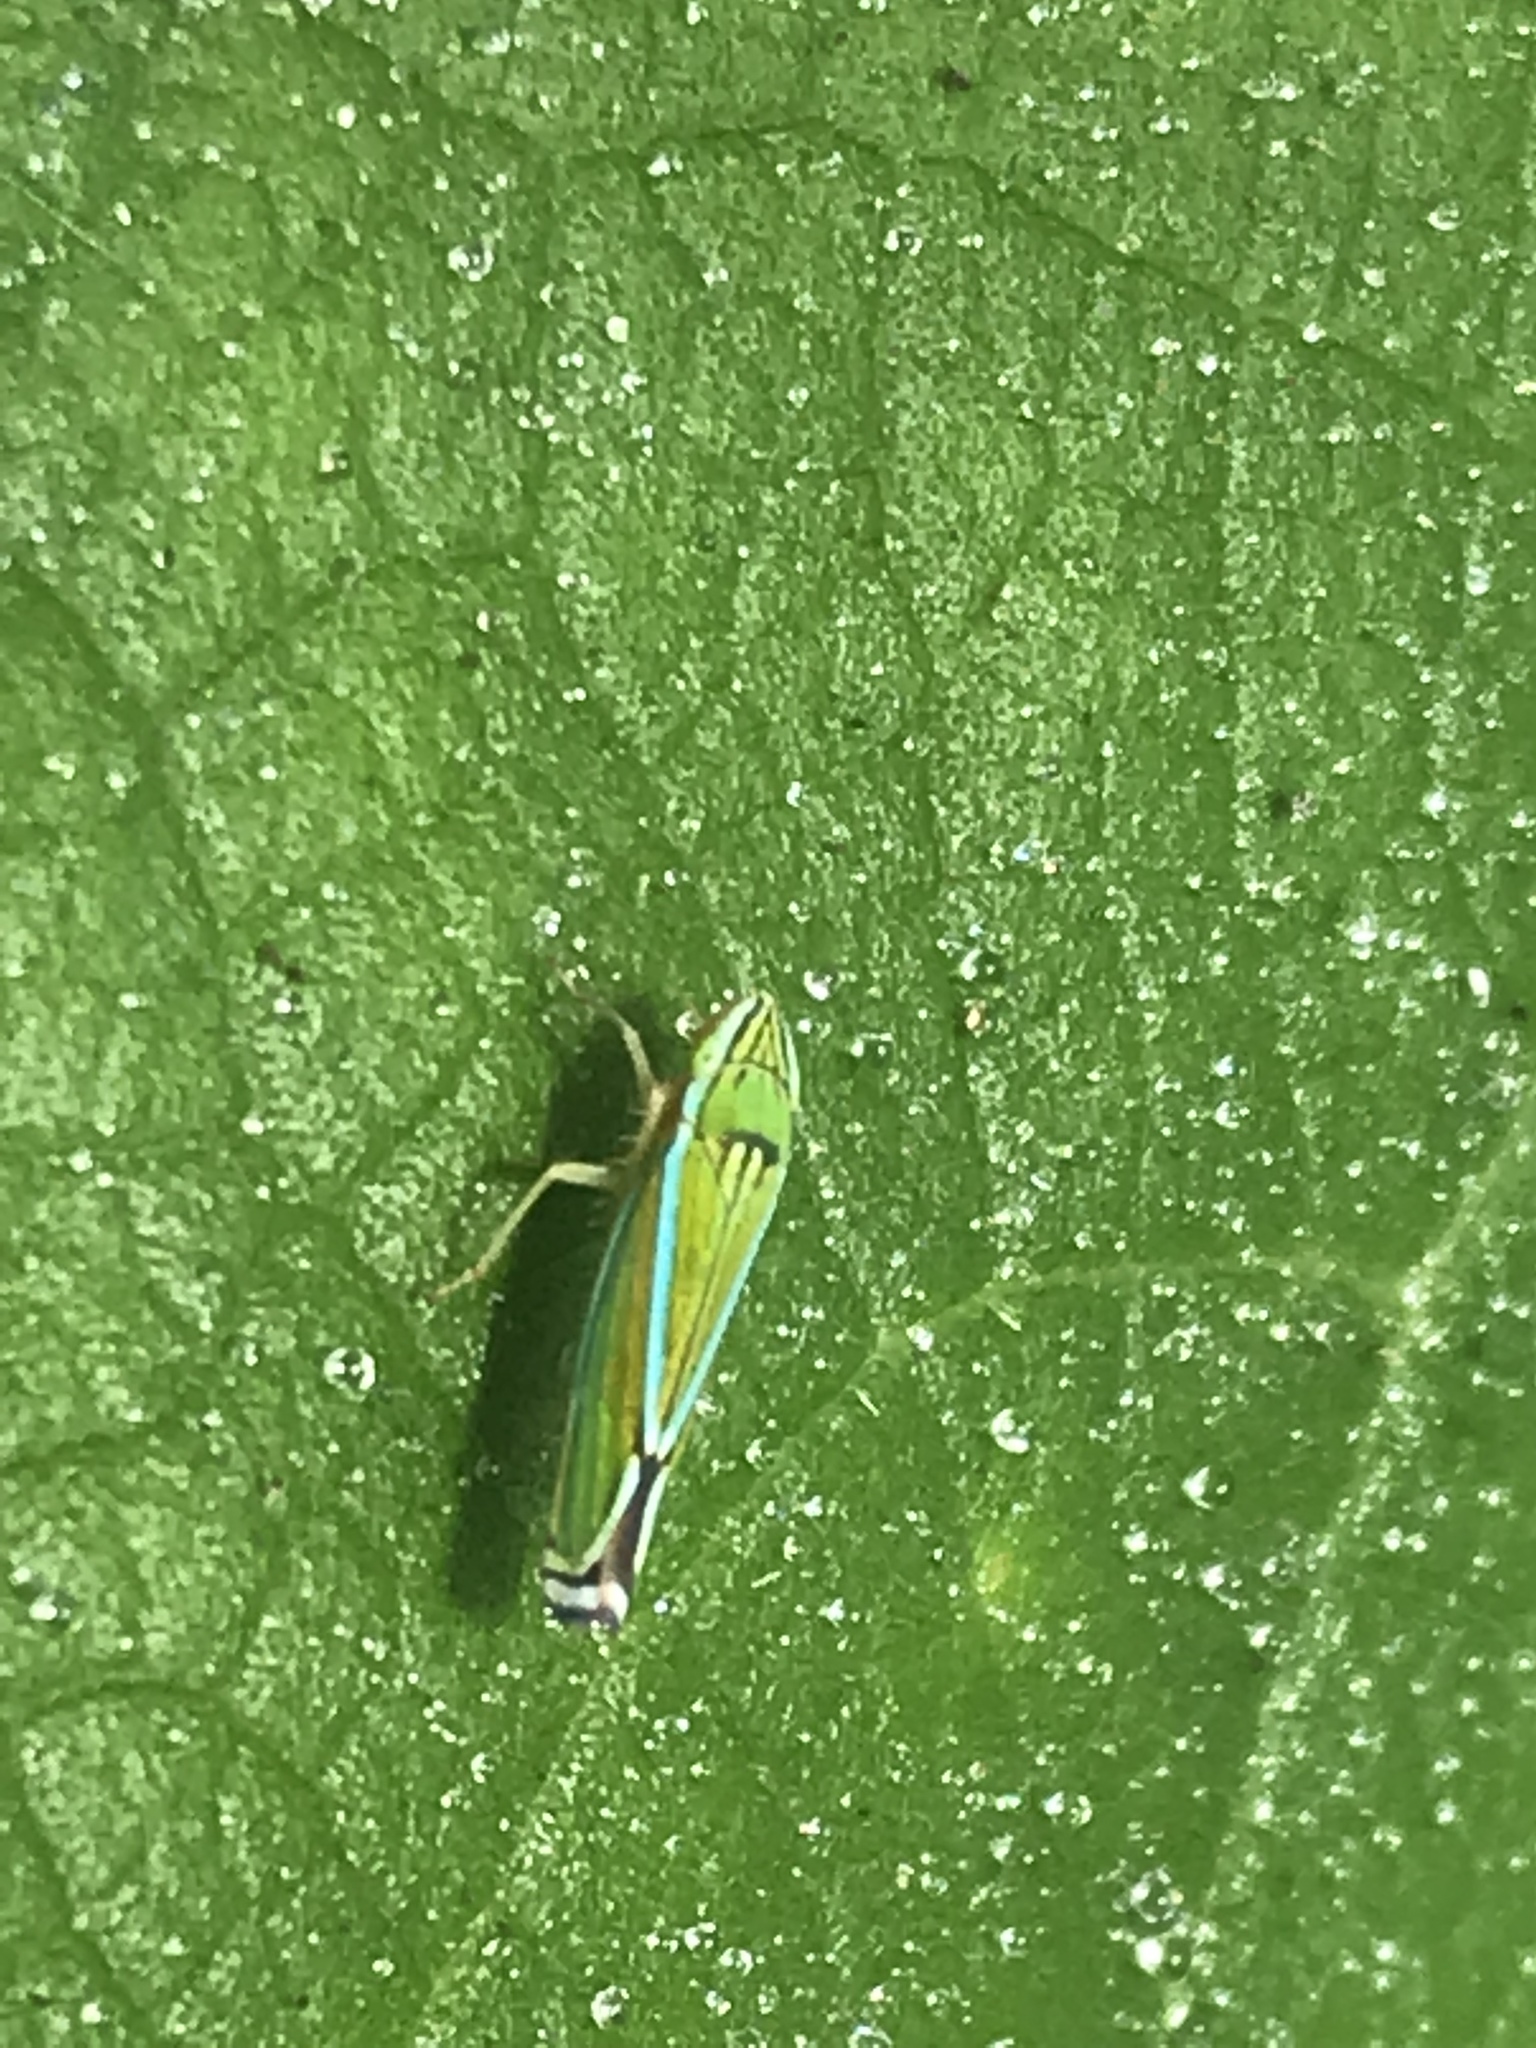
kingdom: Animalia
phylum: Arthropoda
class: Insecta
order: Hemiptera
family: Cicadellidae
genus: Sibovia
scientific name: Sibovia occatoria
